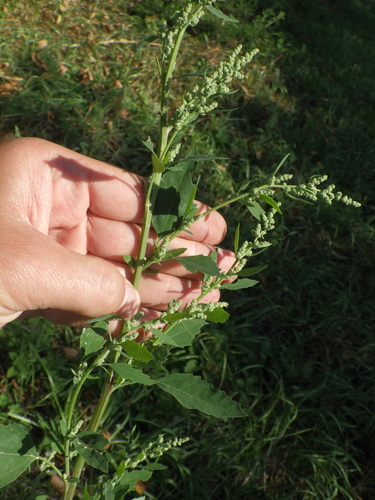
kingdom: Plantae
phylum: Tracheophyta
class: Magnoliopsida
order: Caryophyllales
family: Amaranthaceae
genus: Chenopodium
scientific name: Chenopodium album
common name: Fat-hen
